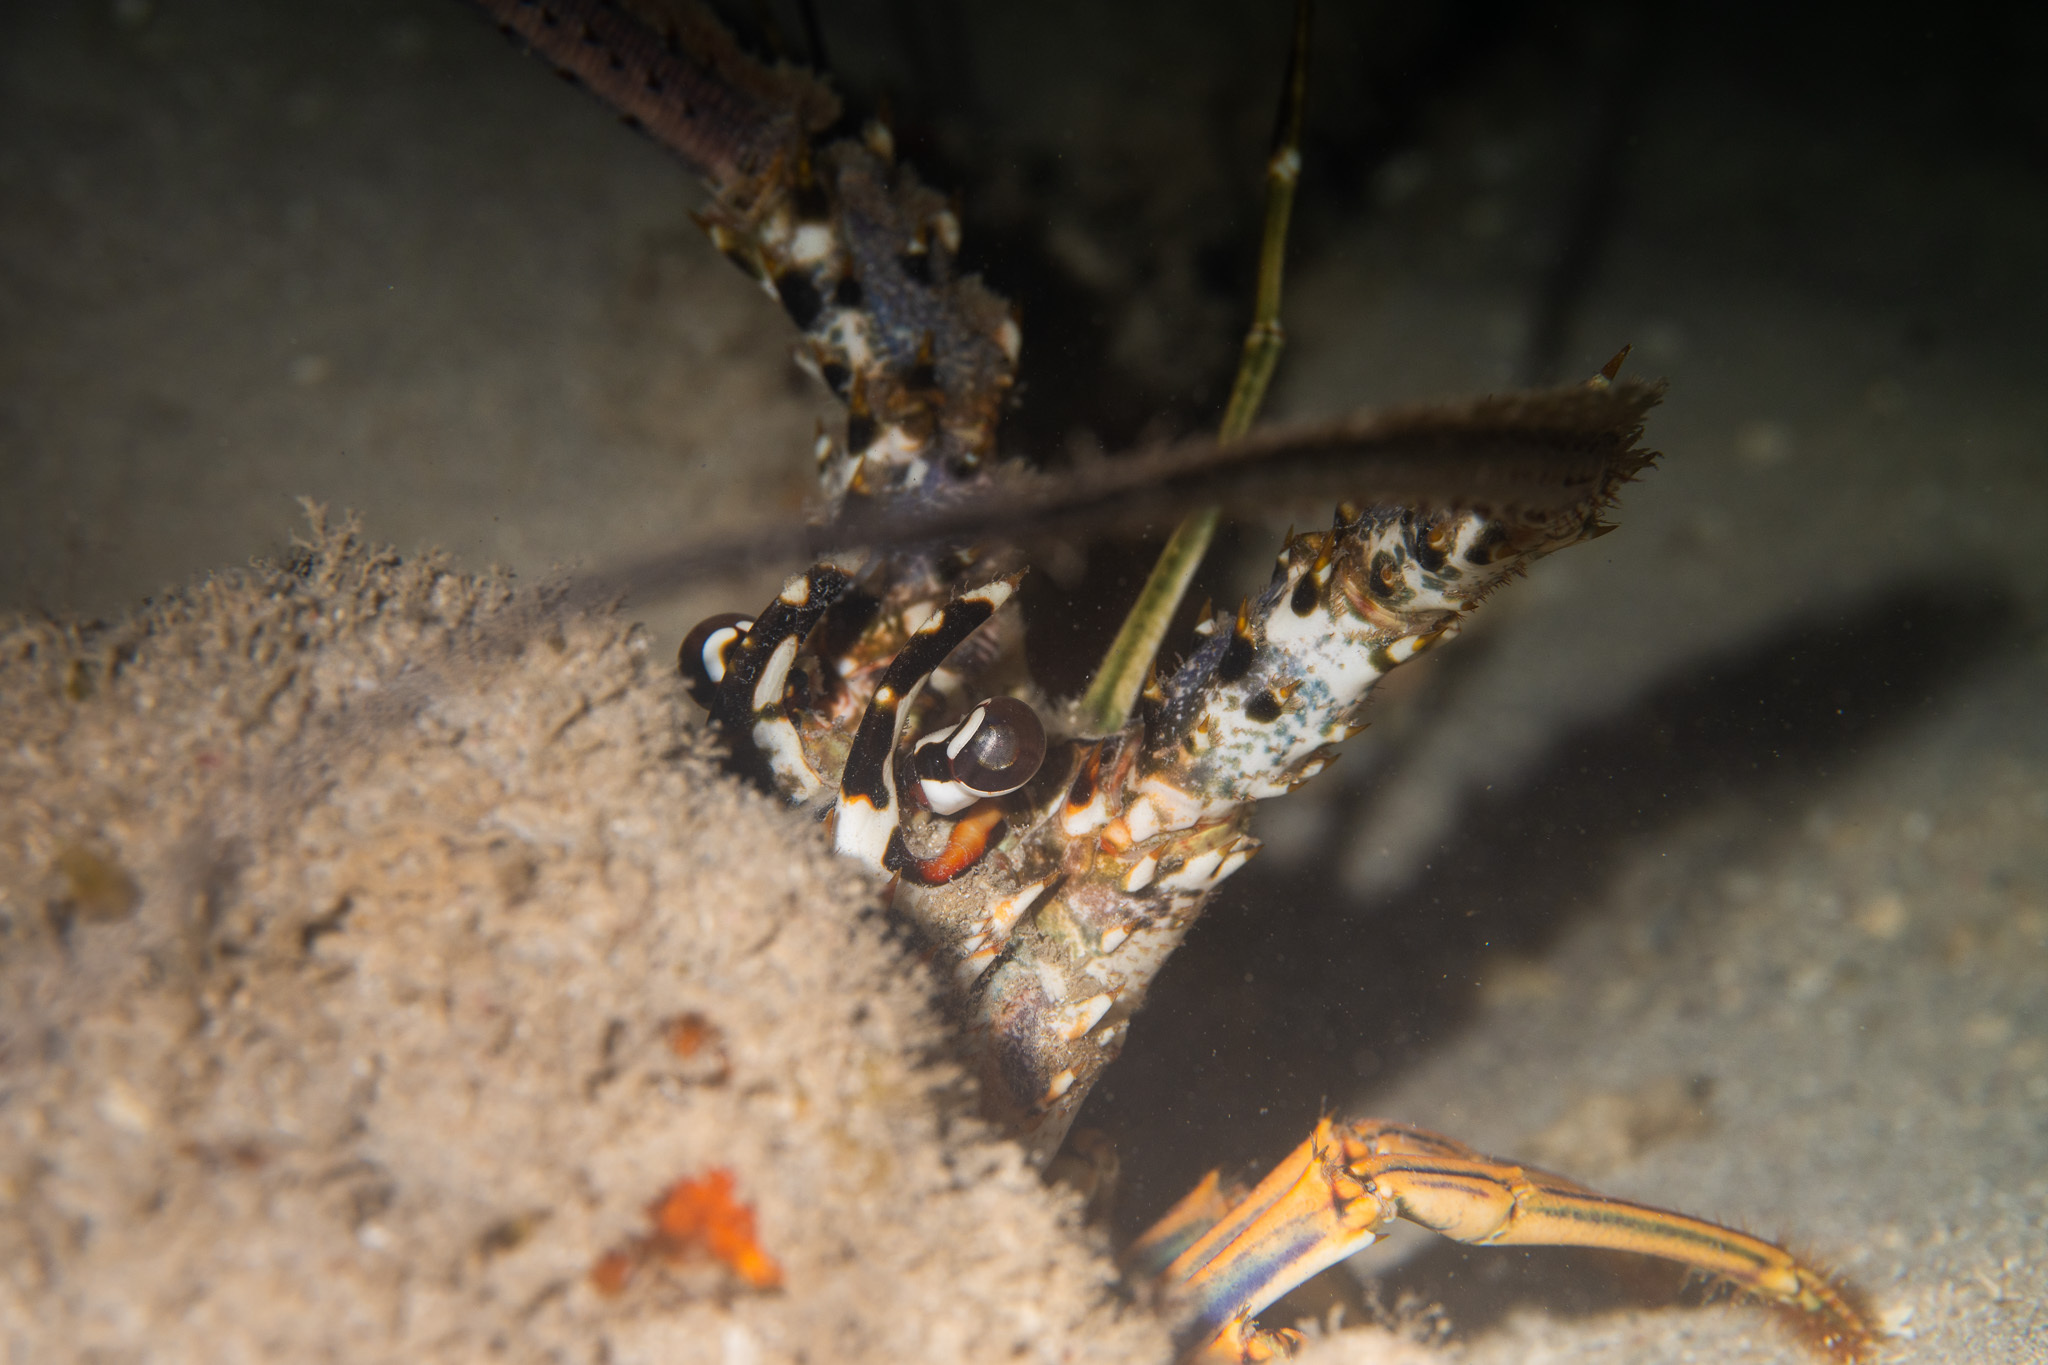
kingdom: Animalia
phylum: Arthropoda
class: Malacostraca
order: Decapoda
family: Palinuridae
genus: Panulirus
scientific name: Panulirus argus
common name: Caribbean spiny lobster
